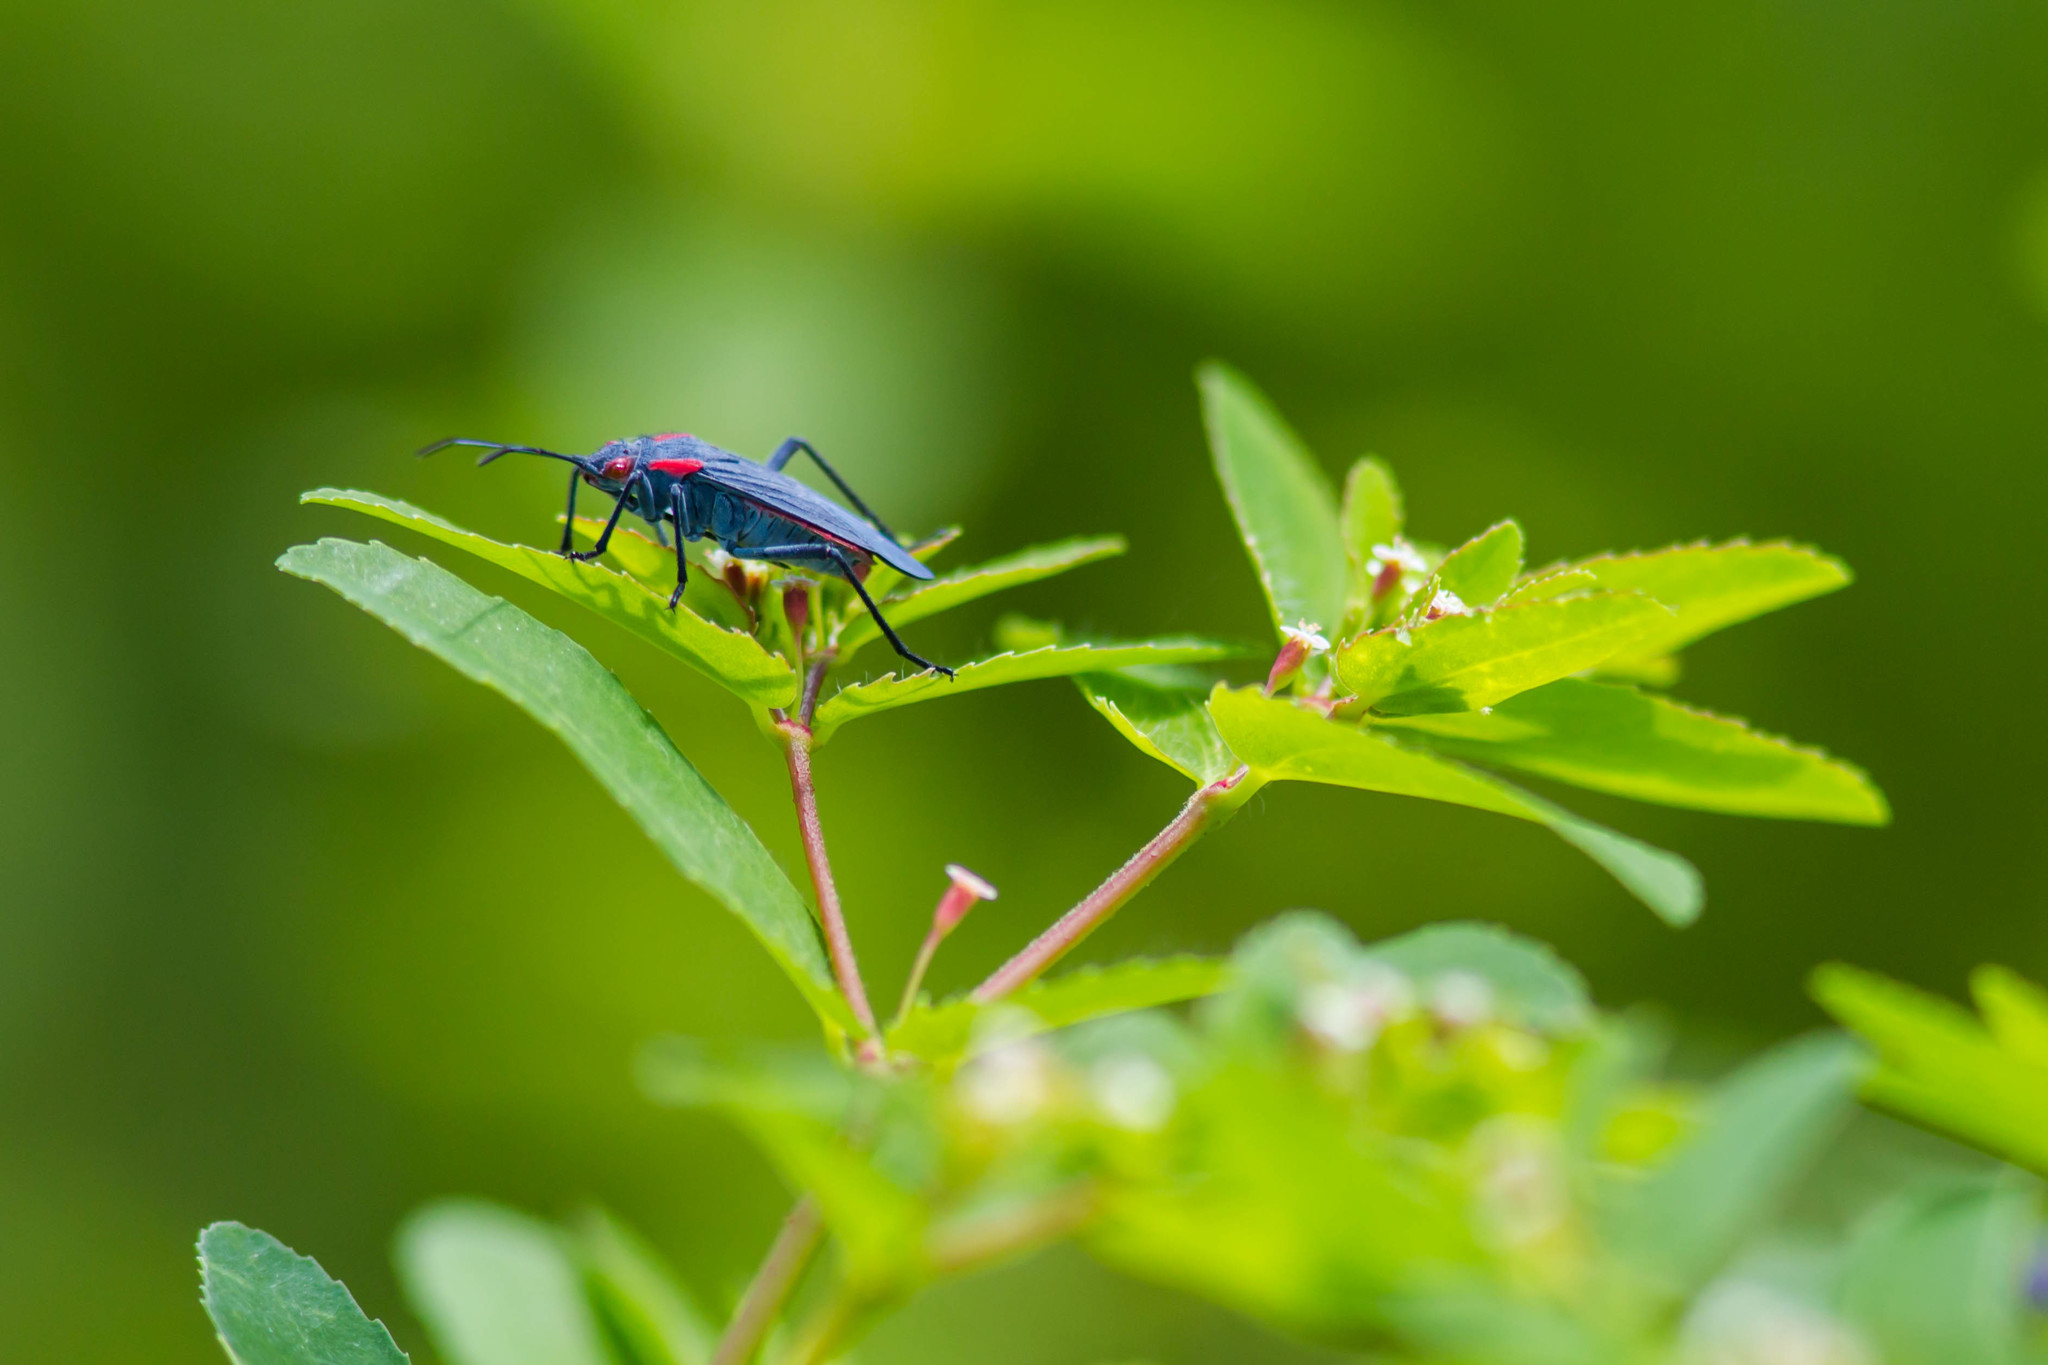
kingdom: Animalia
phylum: Arthropoda
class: Insecta
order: Hemiptera
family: Rhopalidae
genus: Jadera
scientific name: Jadera haematoloma
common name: Red-shouldered bug
